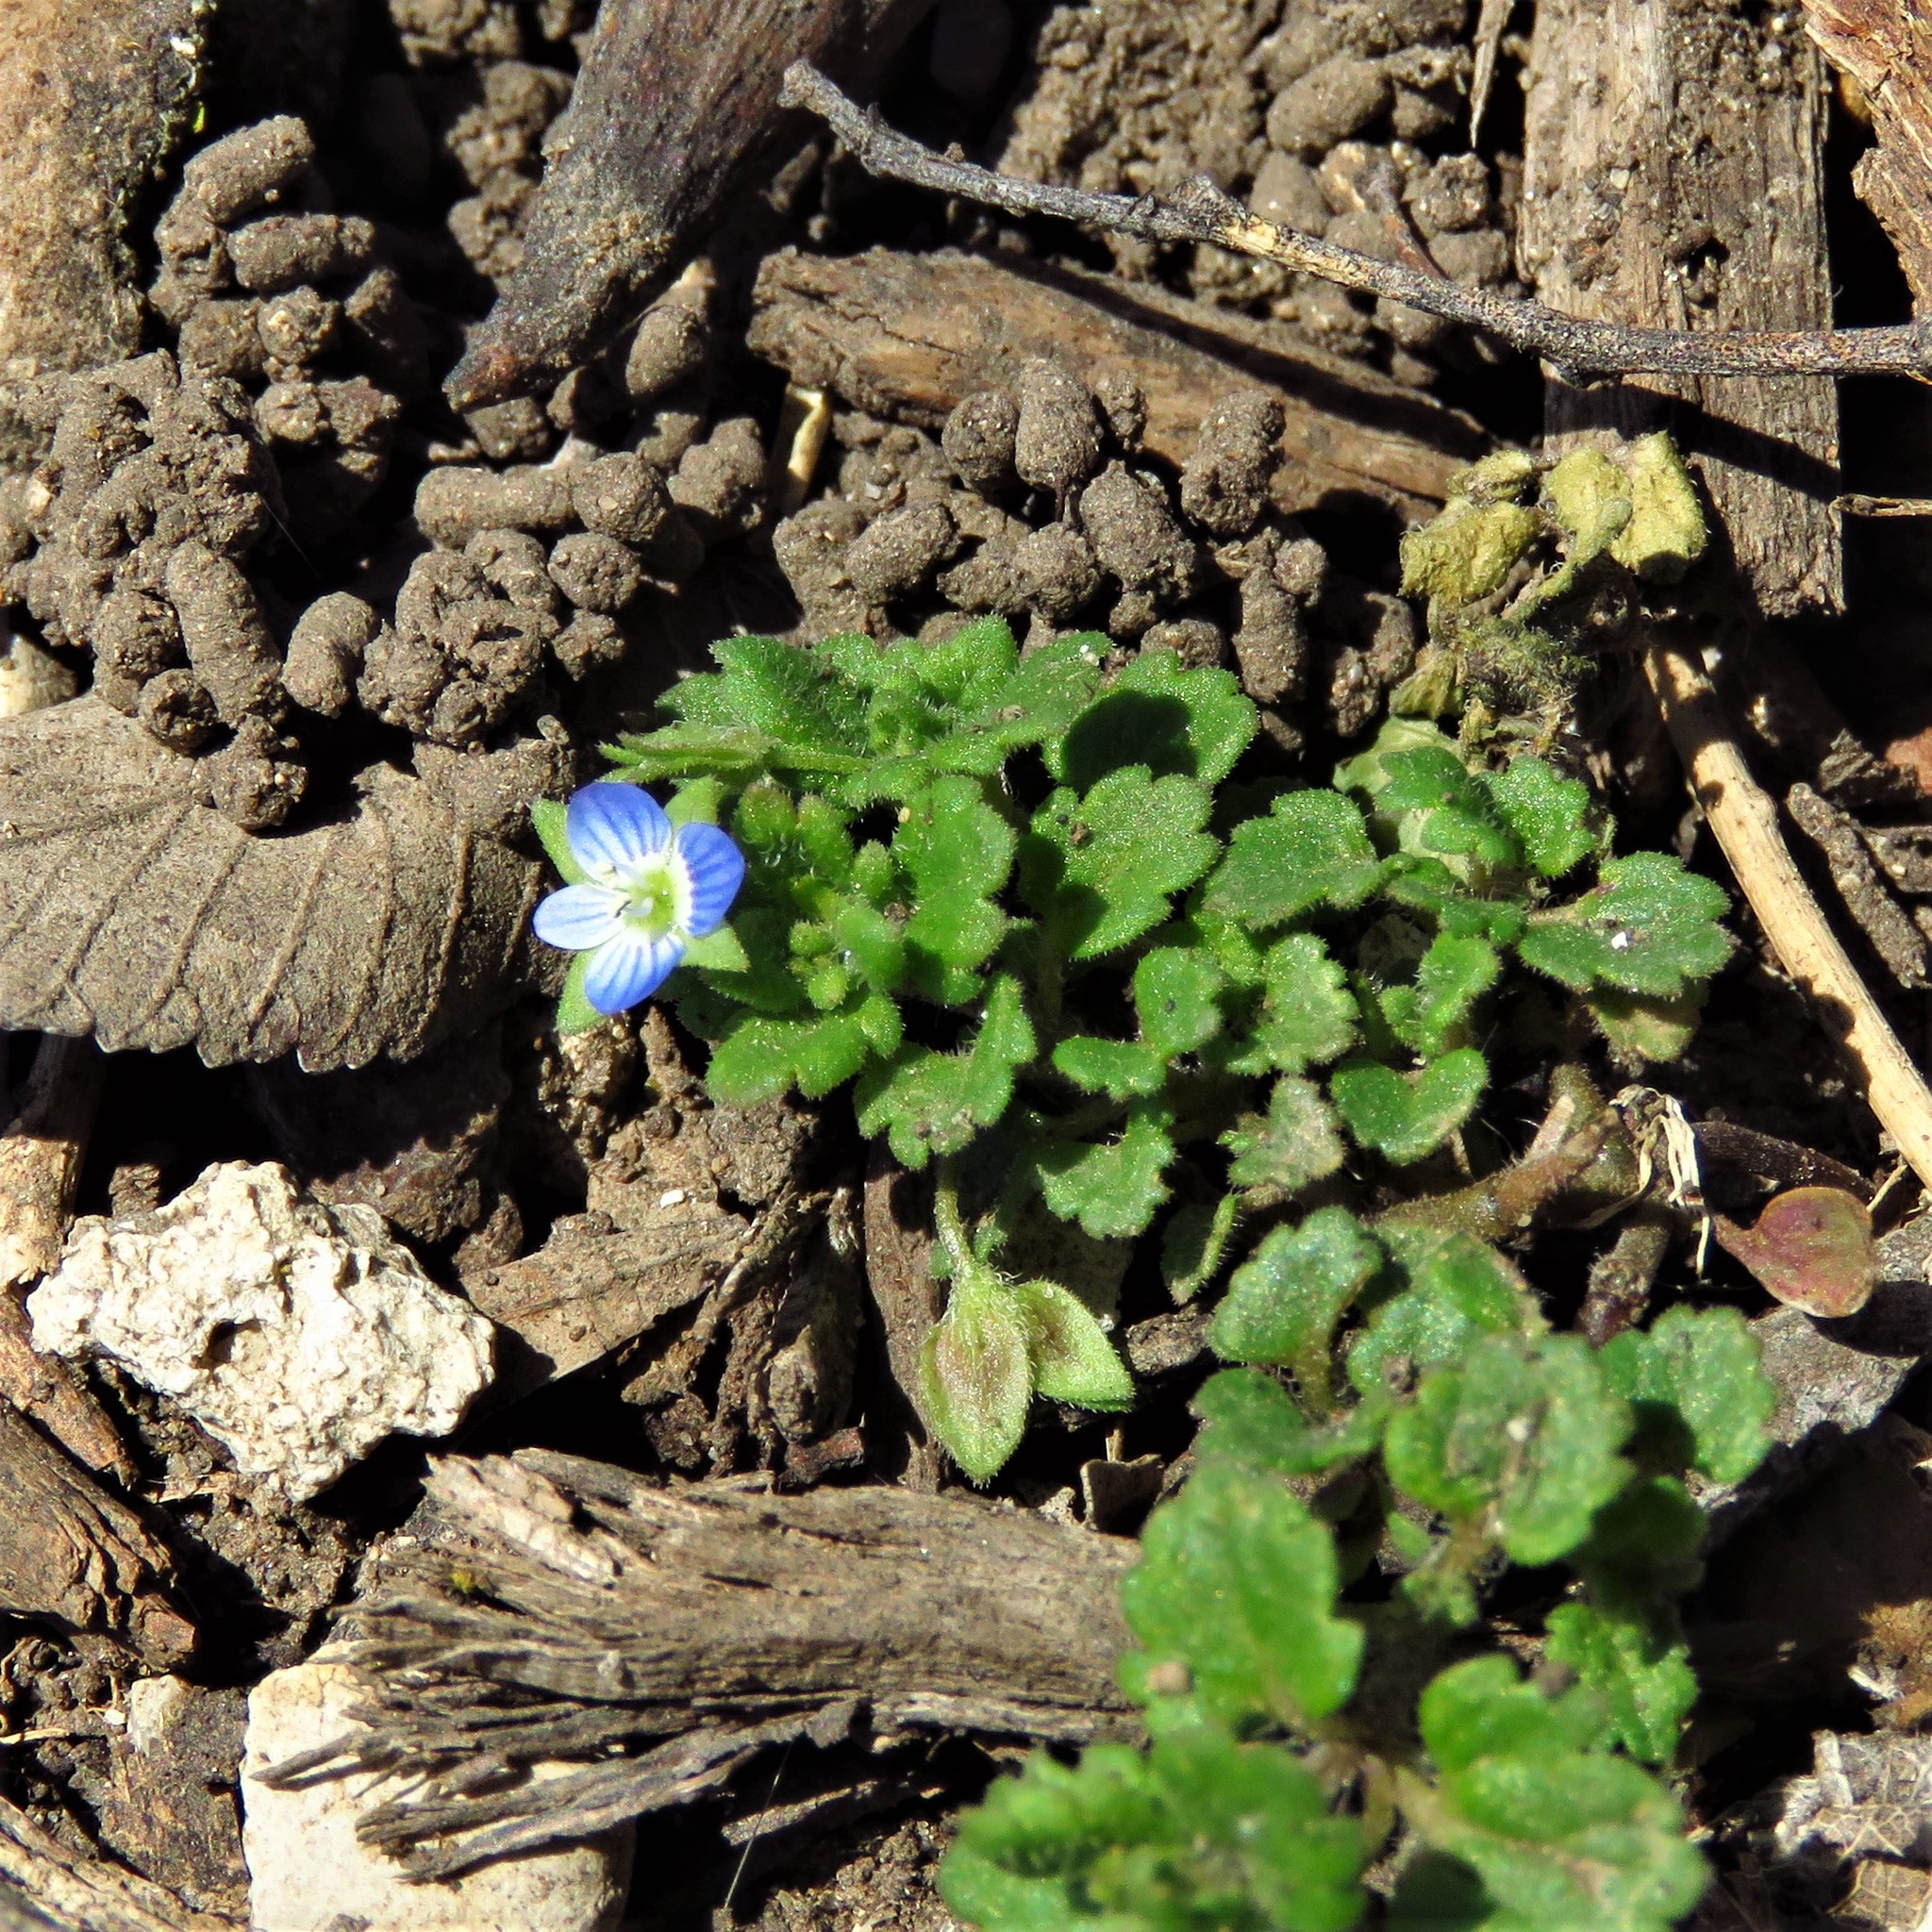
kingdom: Plantae
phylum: Tracheophyta
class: Magnoliopsida
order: Lamiales
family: Plantaginaceae
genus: Veronica
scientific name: Veronica polita
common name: Grey field-speedwell
